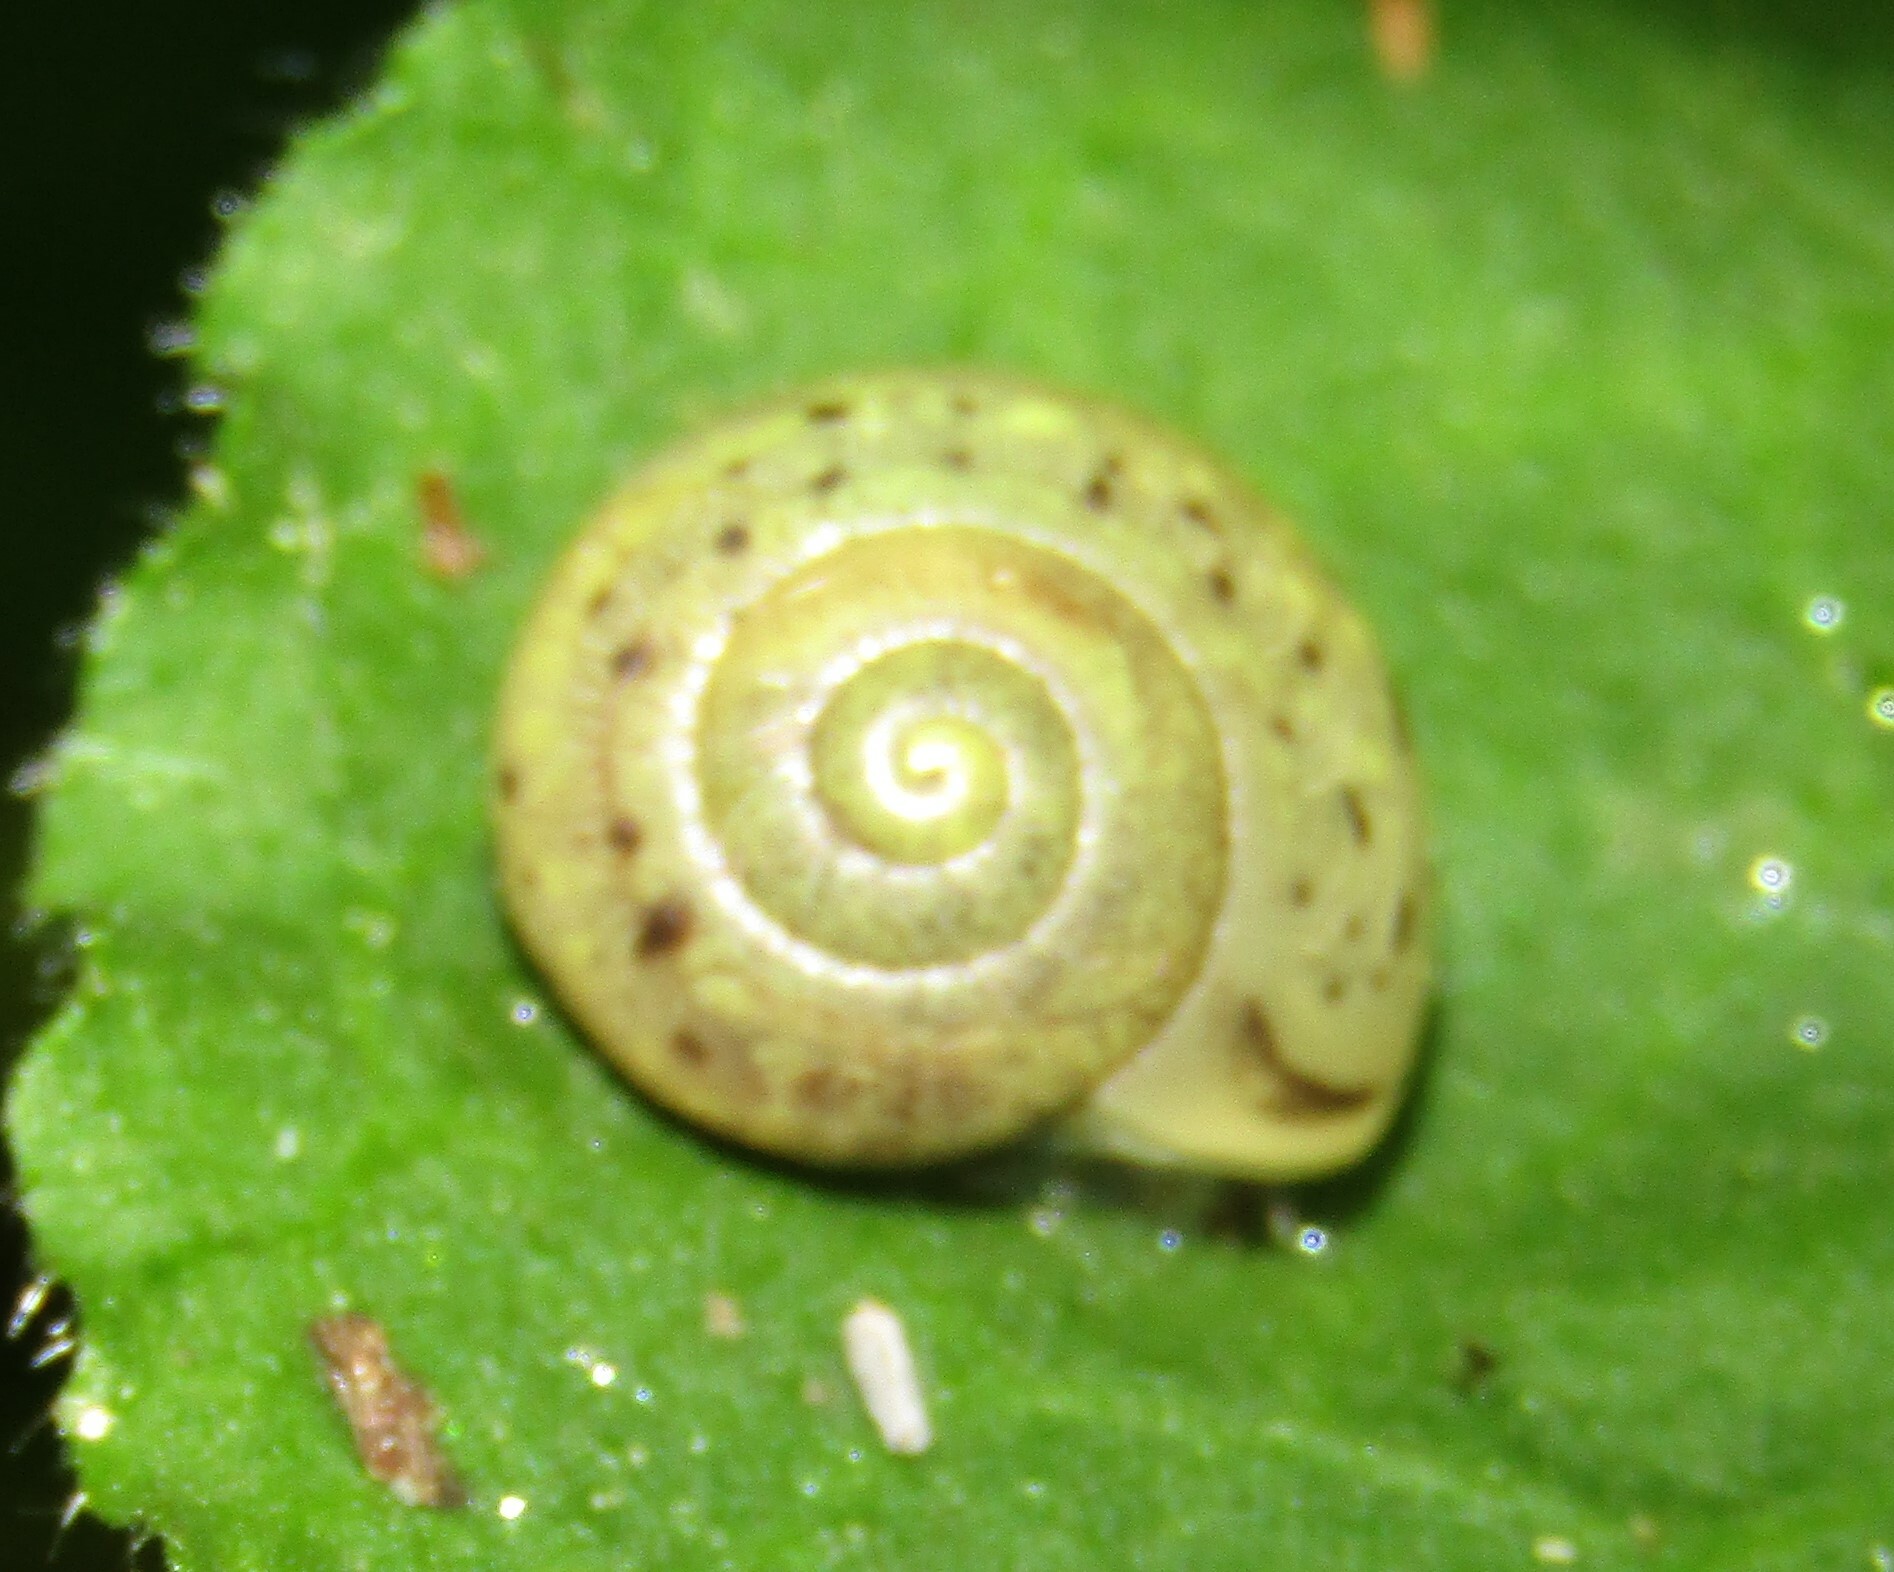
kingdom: Animalia
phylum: Mollusca
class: Gastropoda
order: Stylommatophora
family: Camaenidae
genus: Fruticicola
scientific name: Fruticicola fruticum
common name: Bush snail
